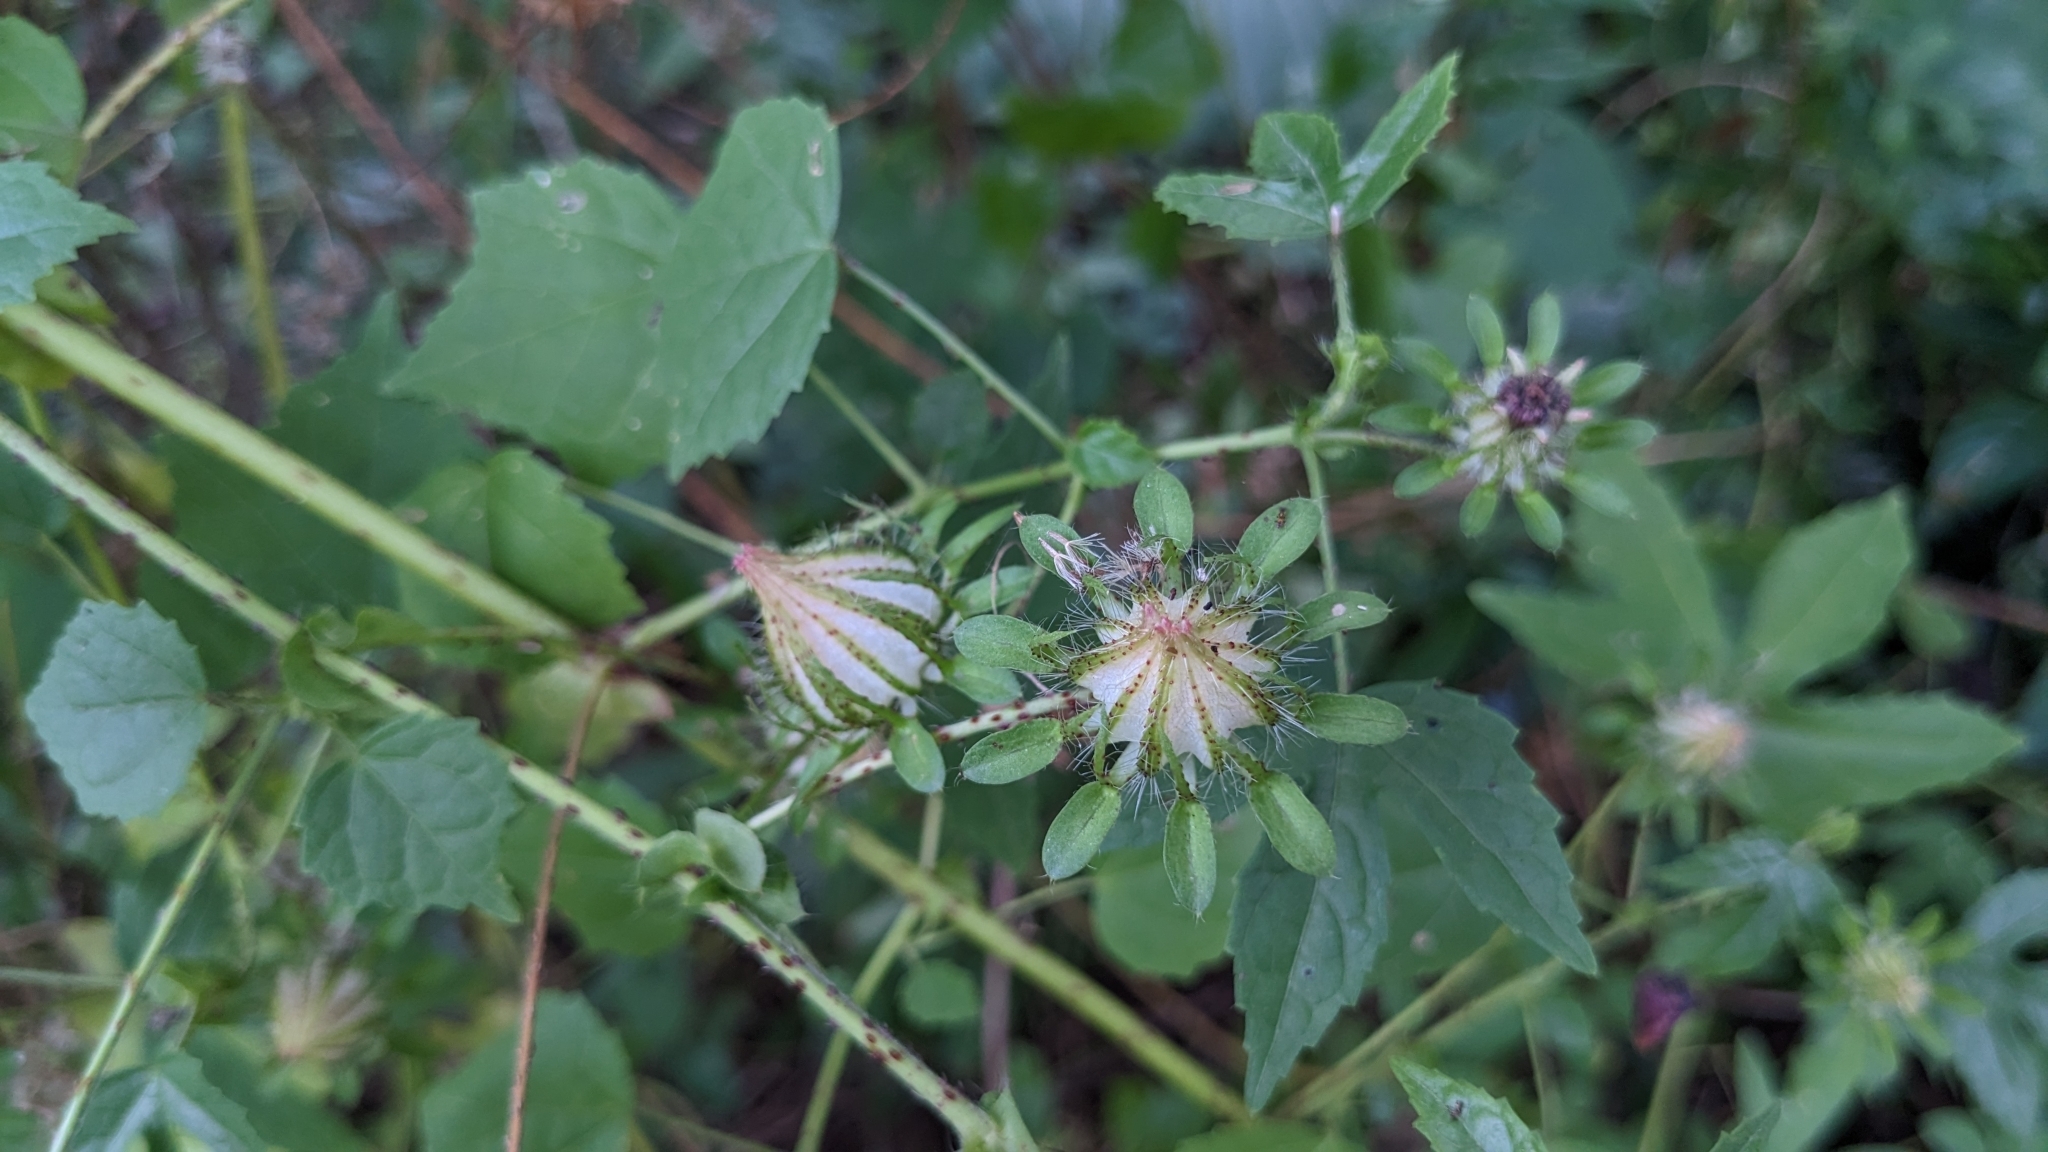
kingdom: Plantae
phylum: Tracheophyta
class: Magnoliopsida
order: Malvales
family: Malvaceae
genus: Hibiscus
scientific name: Hibiscus surattensis
